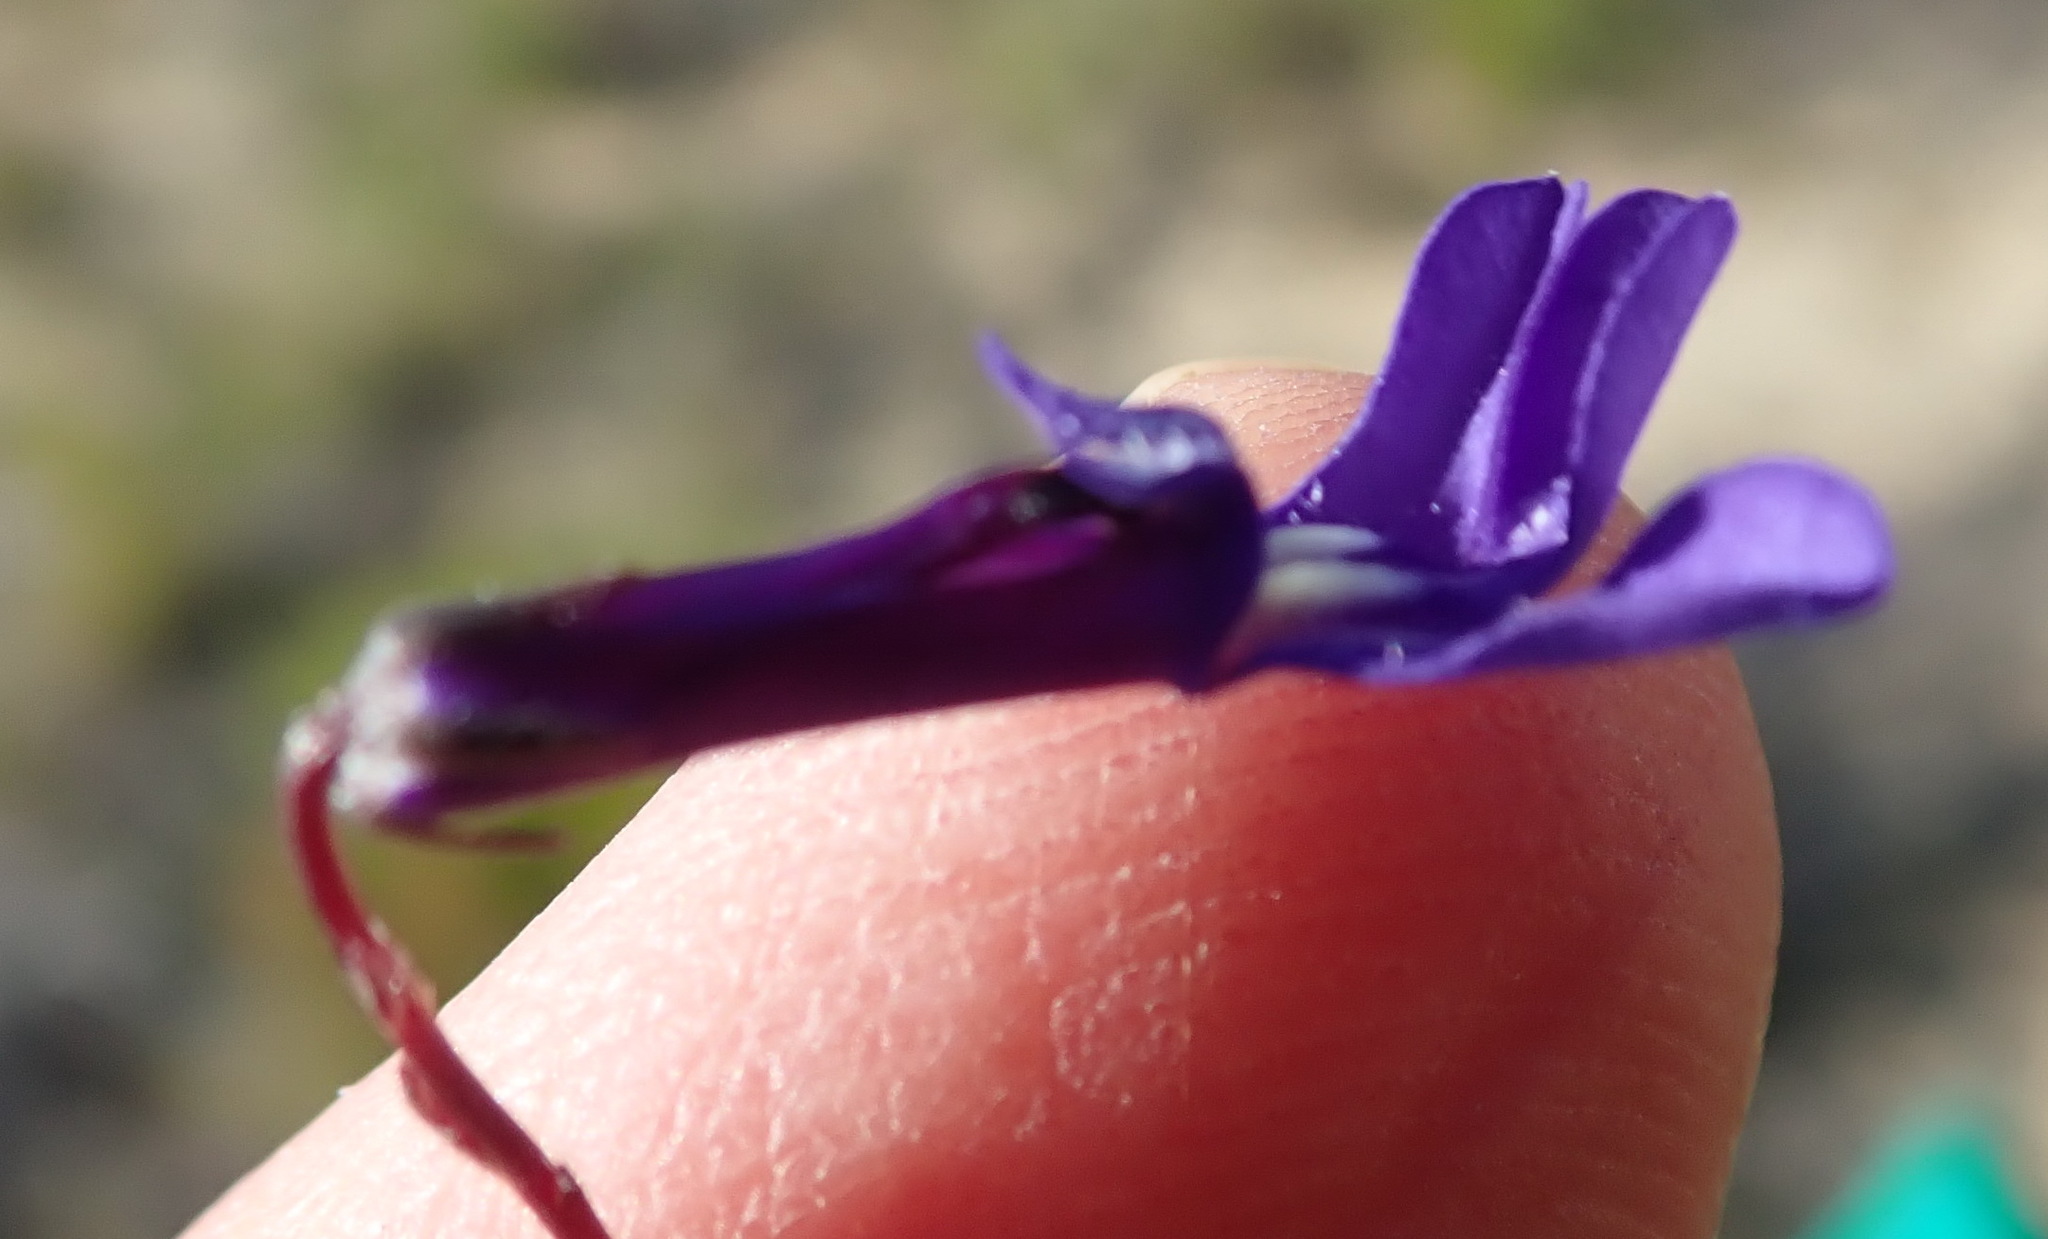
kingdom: Plantae
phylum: Tracheophyta
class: Magnoliopsida
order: Asterales
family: Campanulaceae
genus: Lobelia
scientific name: Lobelia chamaepitys
